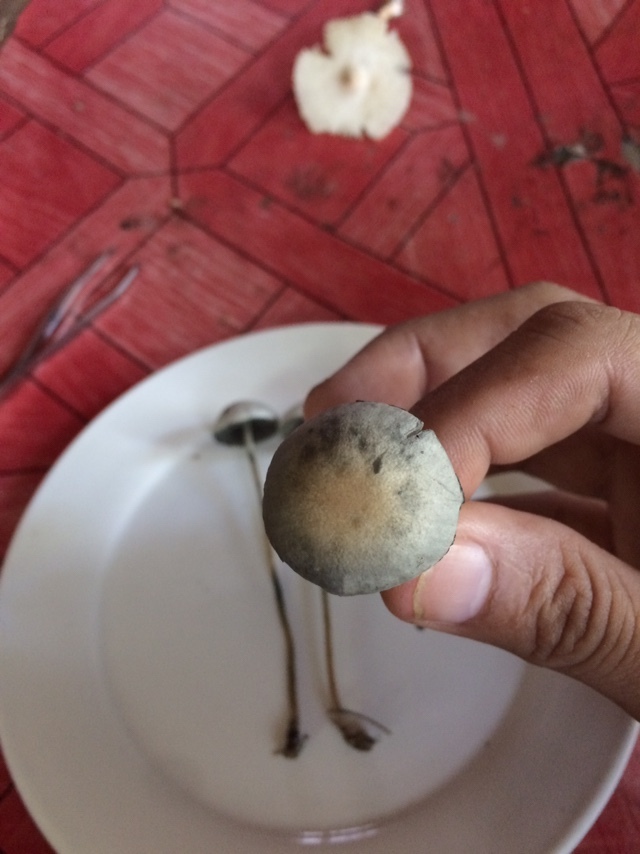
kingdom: Fungi
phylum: Basidiomycota
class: Agaricomycetes
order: Agaricales
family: Bolbitiaceae
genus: Panaeolus
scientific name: Panaeolus cyanescens
